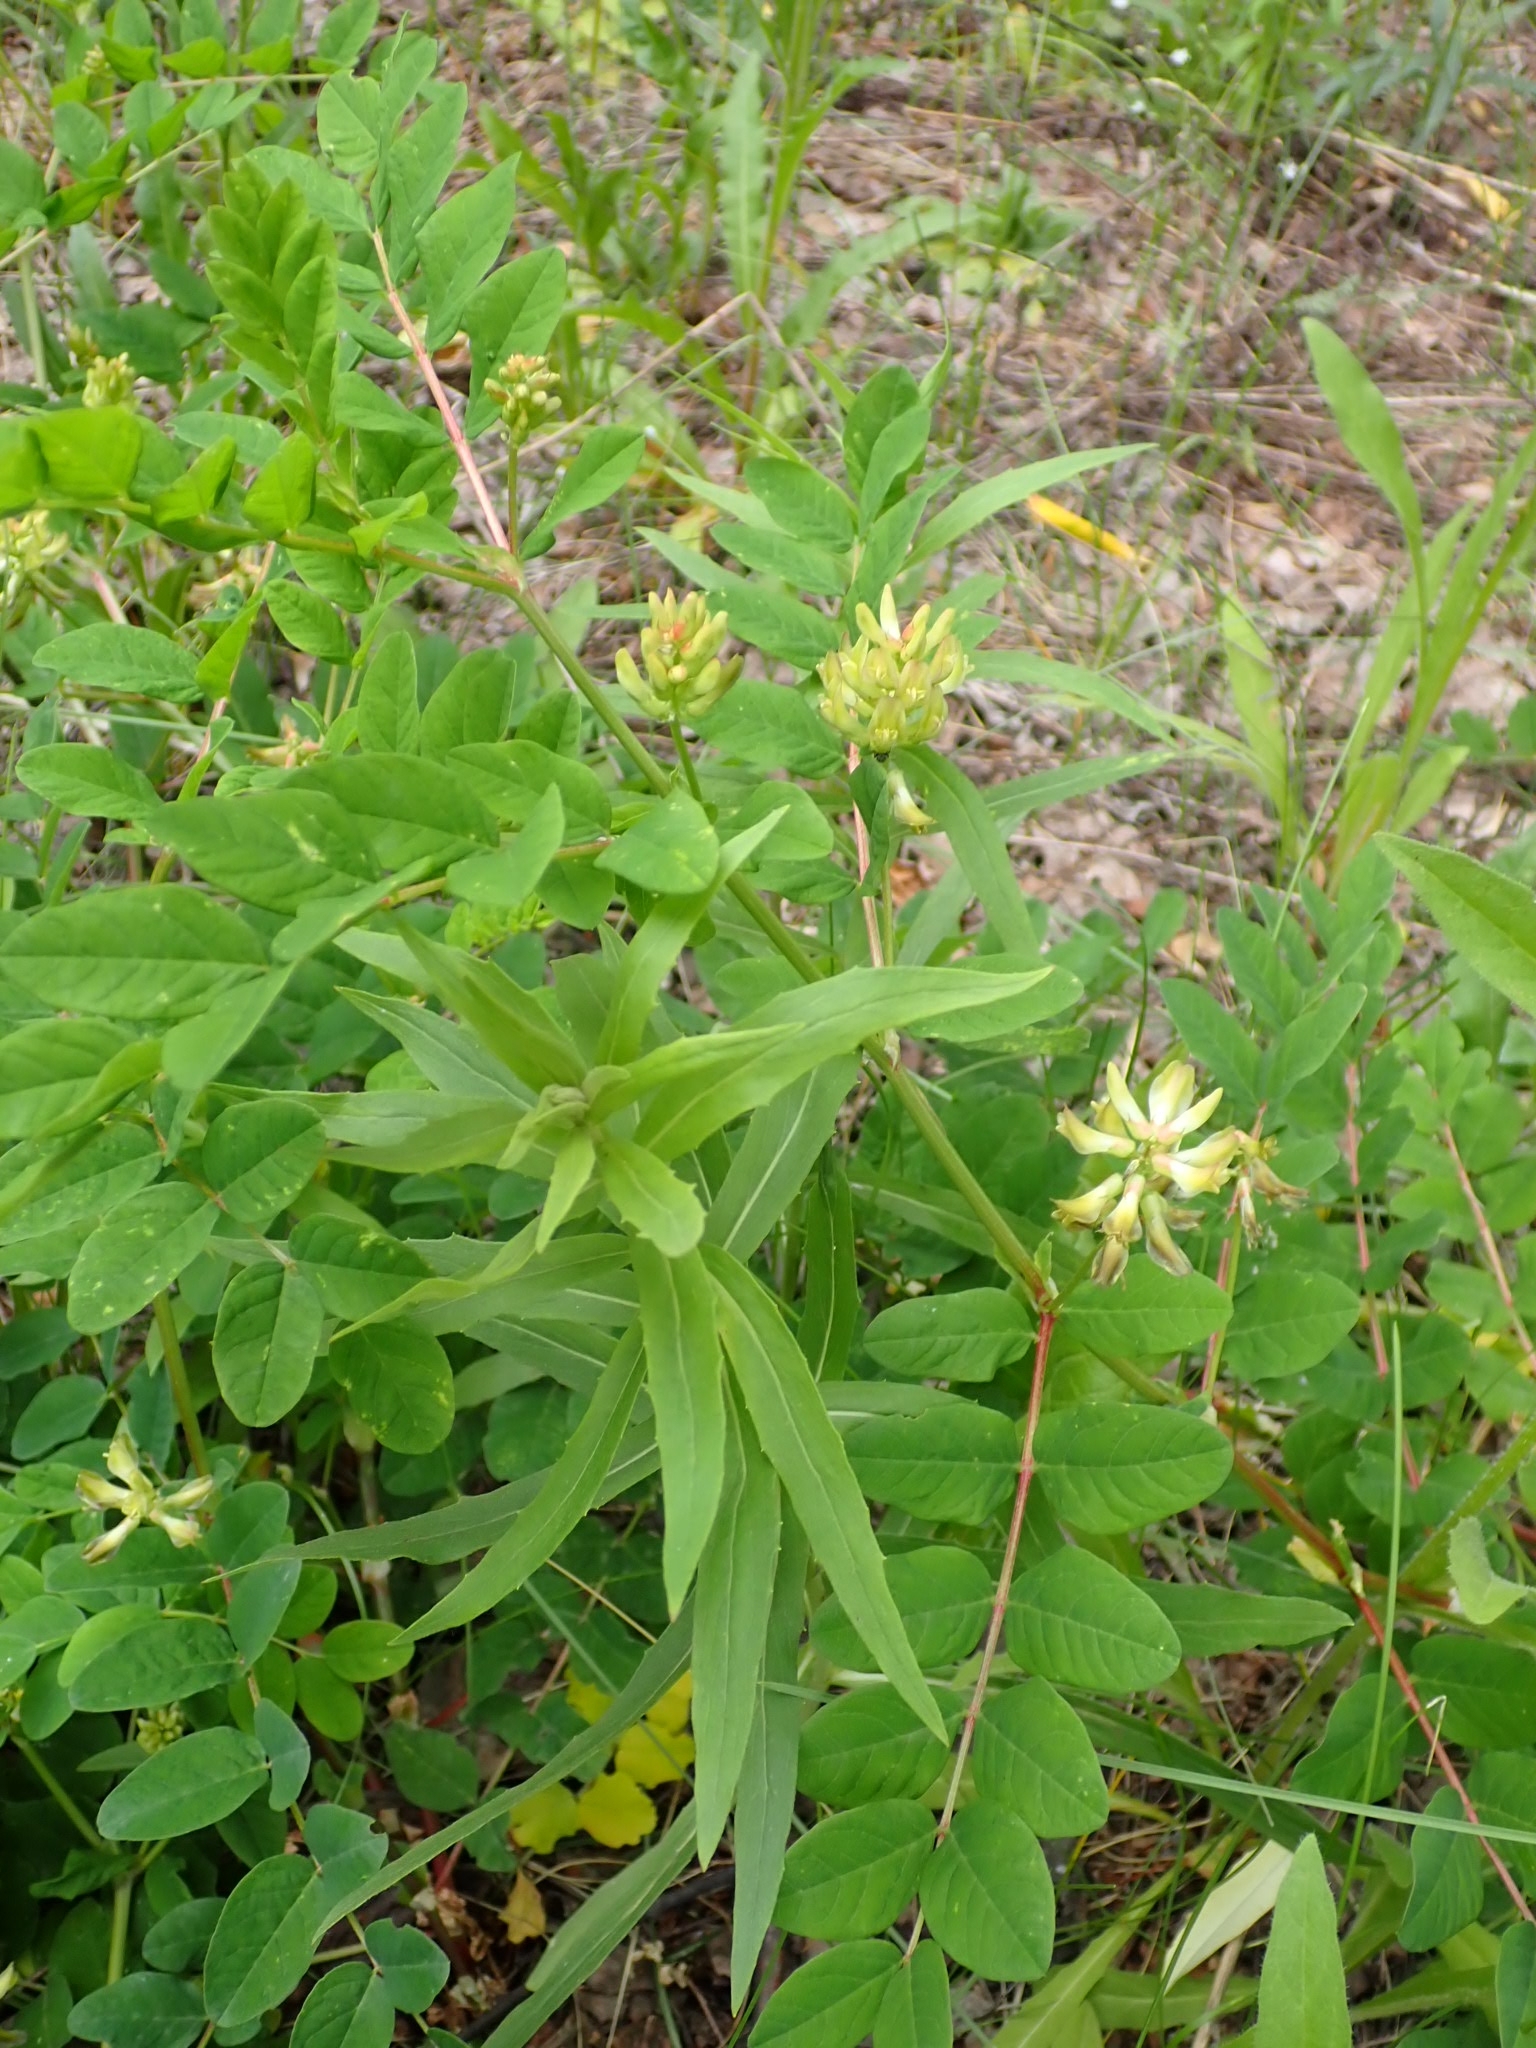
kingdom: Plantae
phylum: Tracheophyta
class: Magnoliopsida
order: Fabales
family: Fabaceae
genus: Astragalus
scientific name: Astragalus glycyphyllos
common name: Wild liquorice
